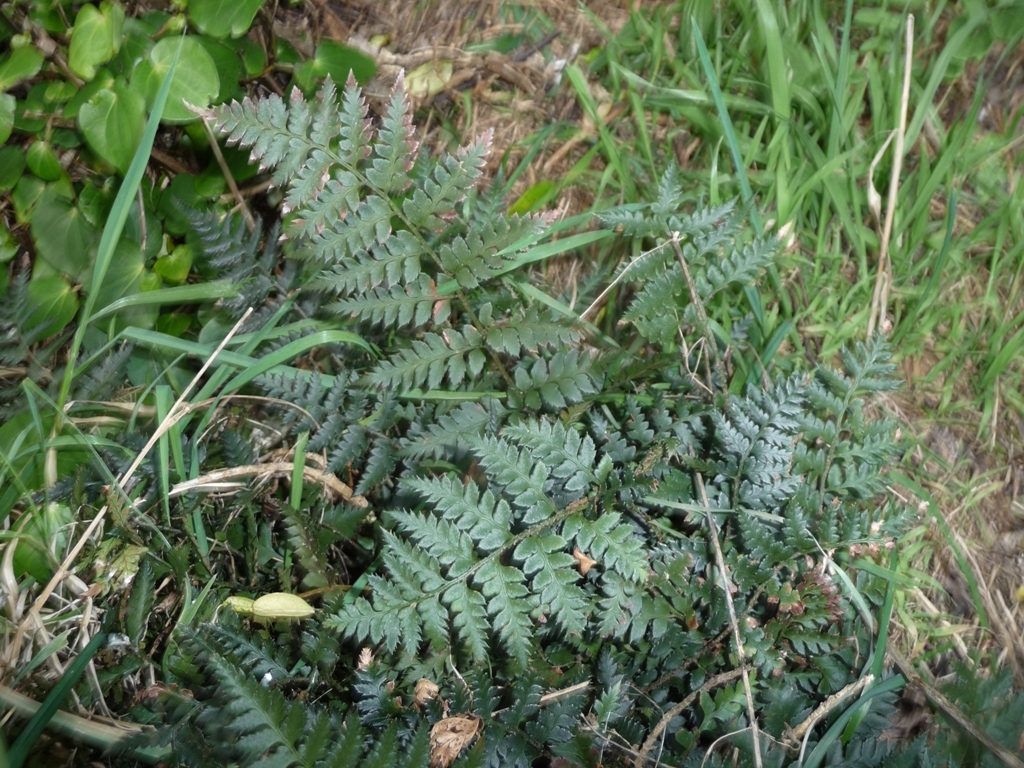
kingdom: Plantae
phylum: Tracheophyta
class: Polypodiopsida
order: Polypodiales
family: Dryopteridaceae
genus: Polystichum
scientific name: Polystichum oculatum
